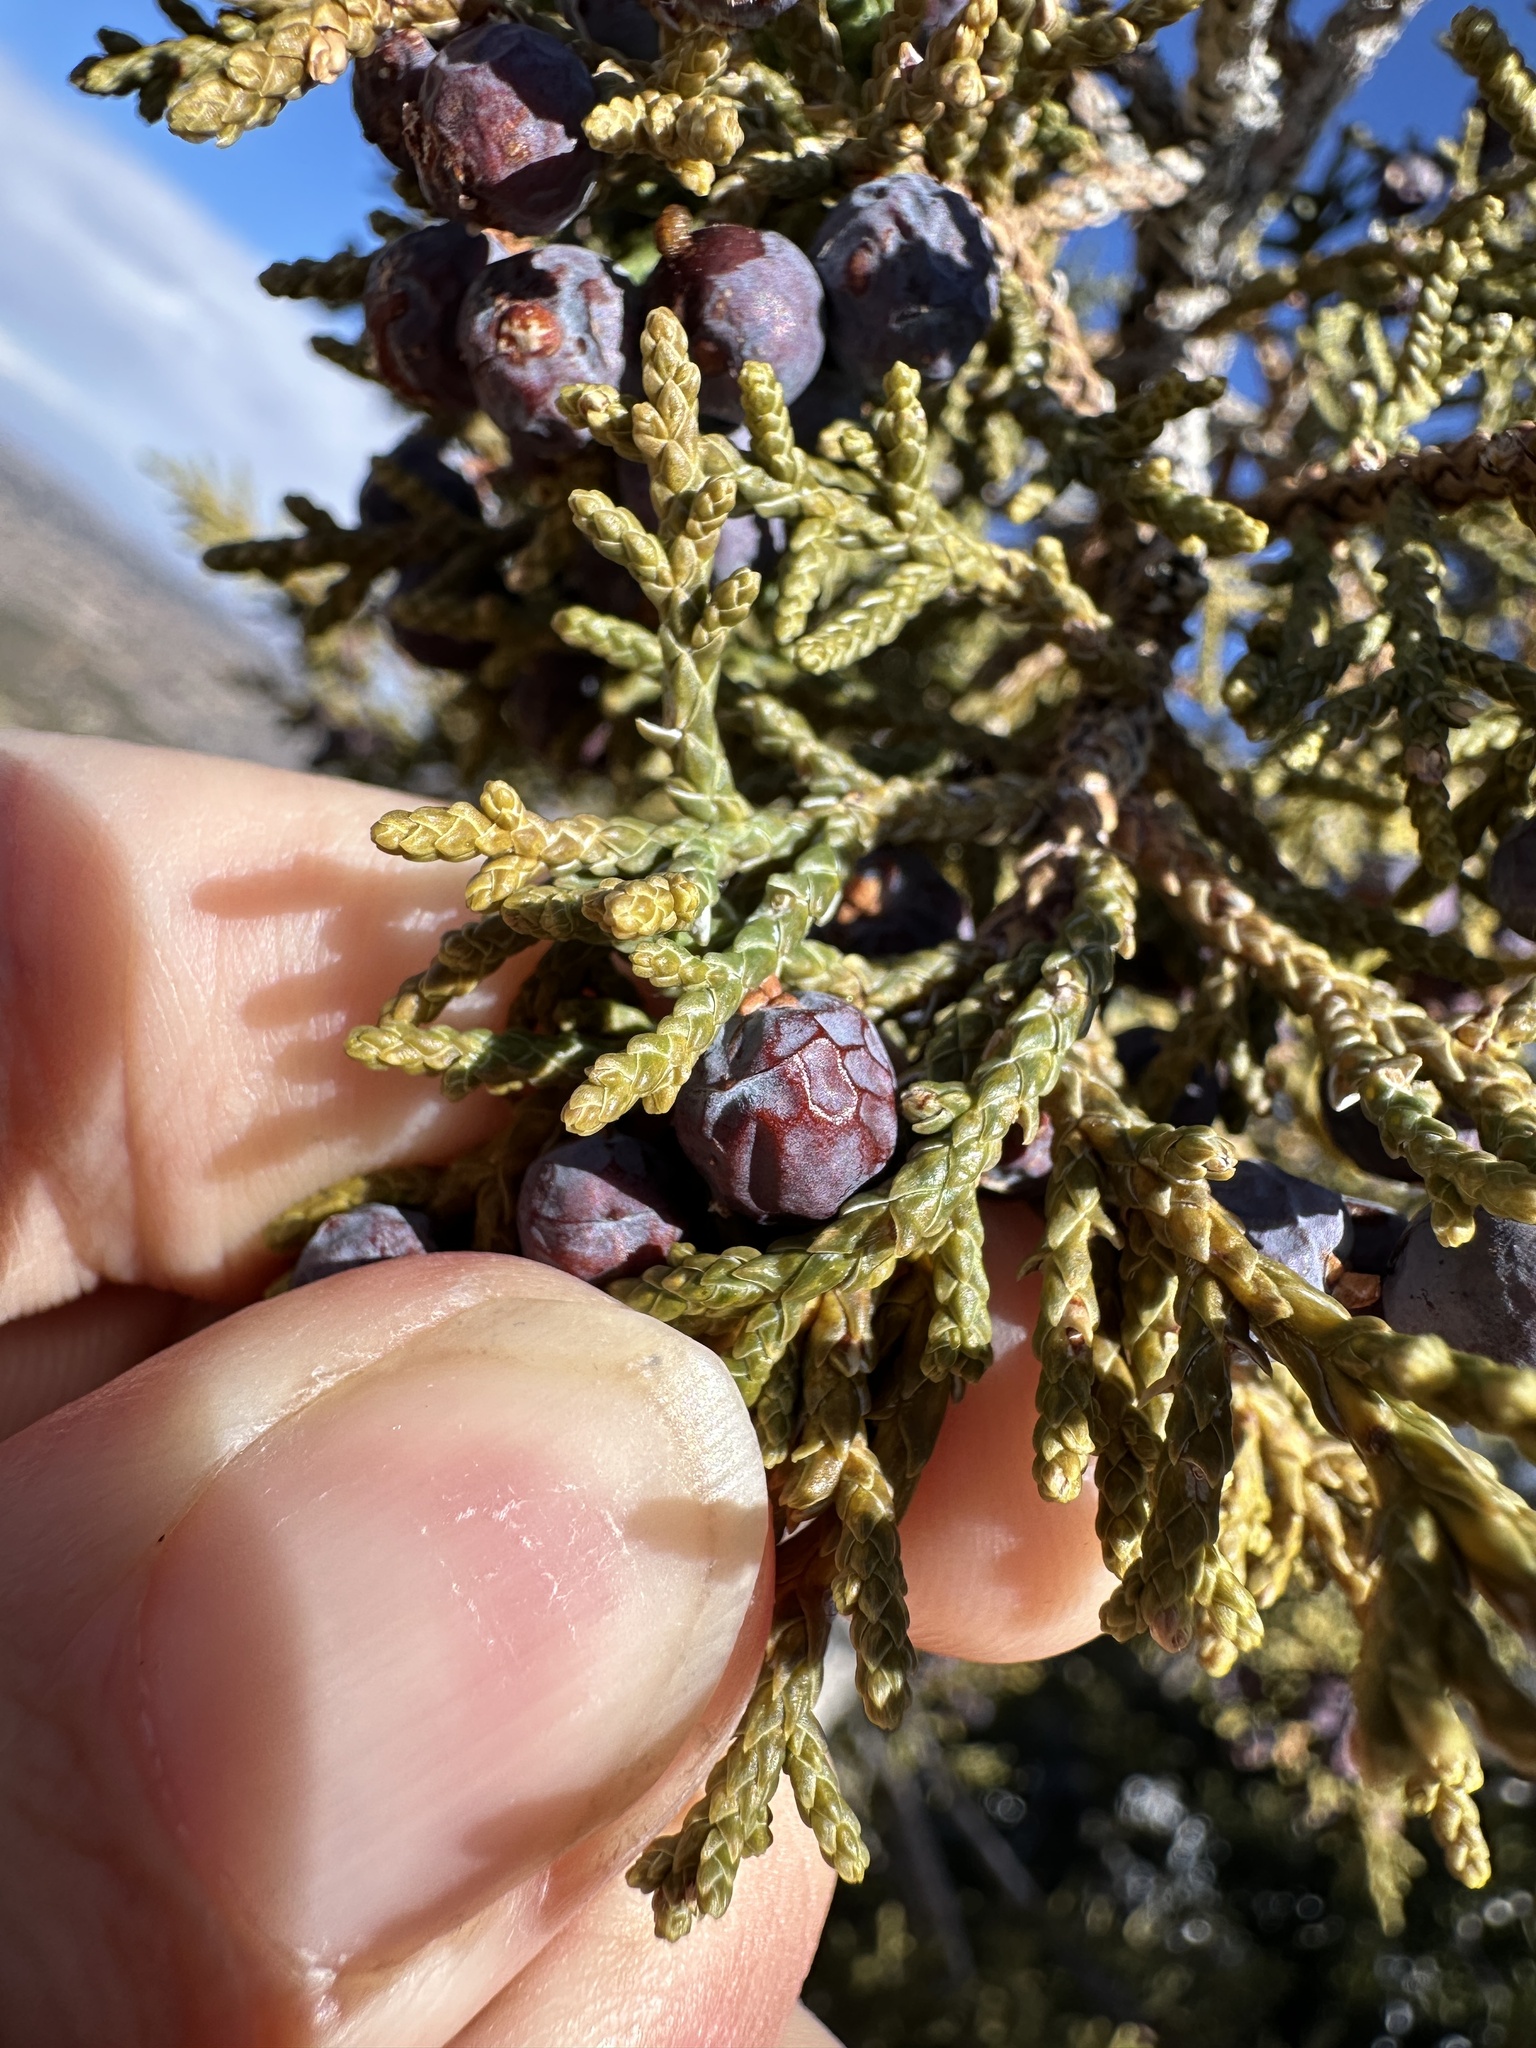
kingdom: Plantae
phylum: Tracheophyta
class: Pinopsida
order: Pinales
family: Cupressaceae
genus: Juniperus
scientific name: Juniperus monosperma
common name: One-seed juniper
